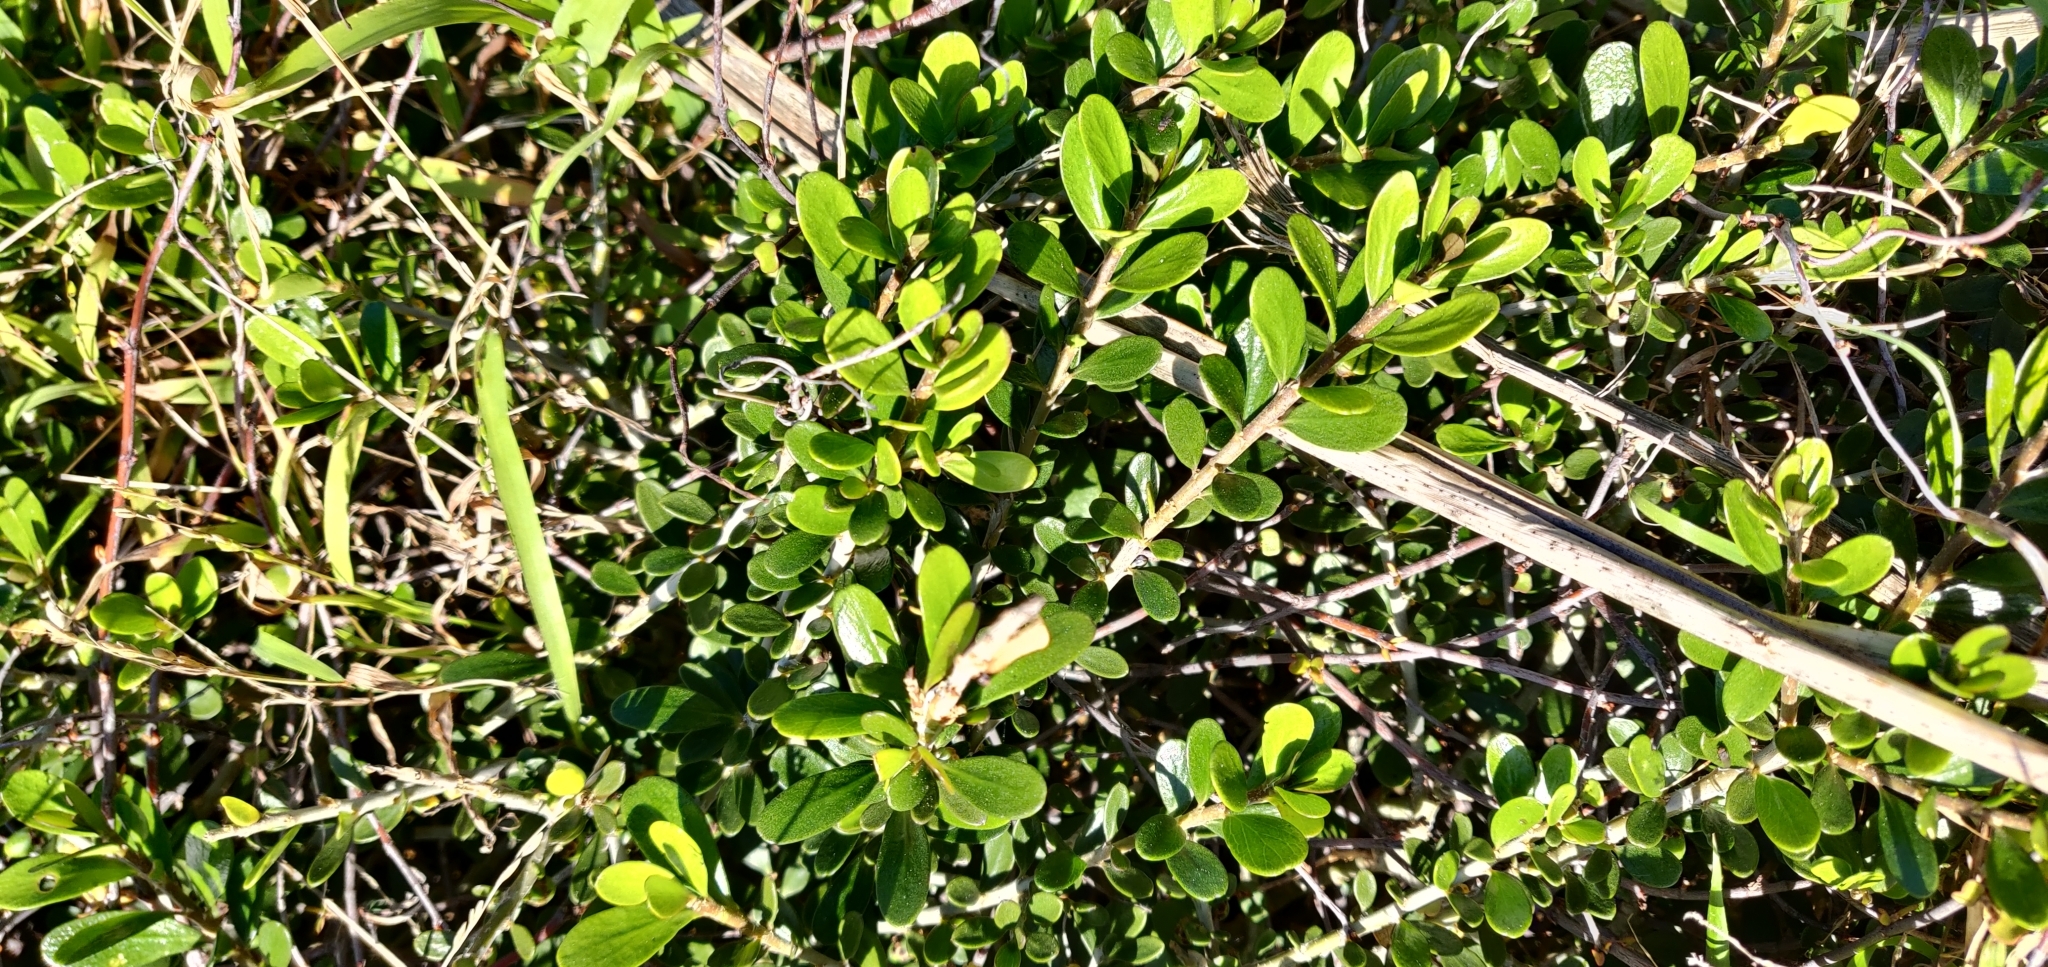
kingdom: Plantae
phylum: Tracheophyta
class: Magnoliopsida
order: Malpighiales
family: Violaceae
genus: Melicytus
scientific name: Melicytus crassifolius
